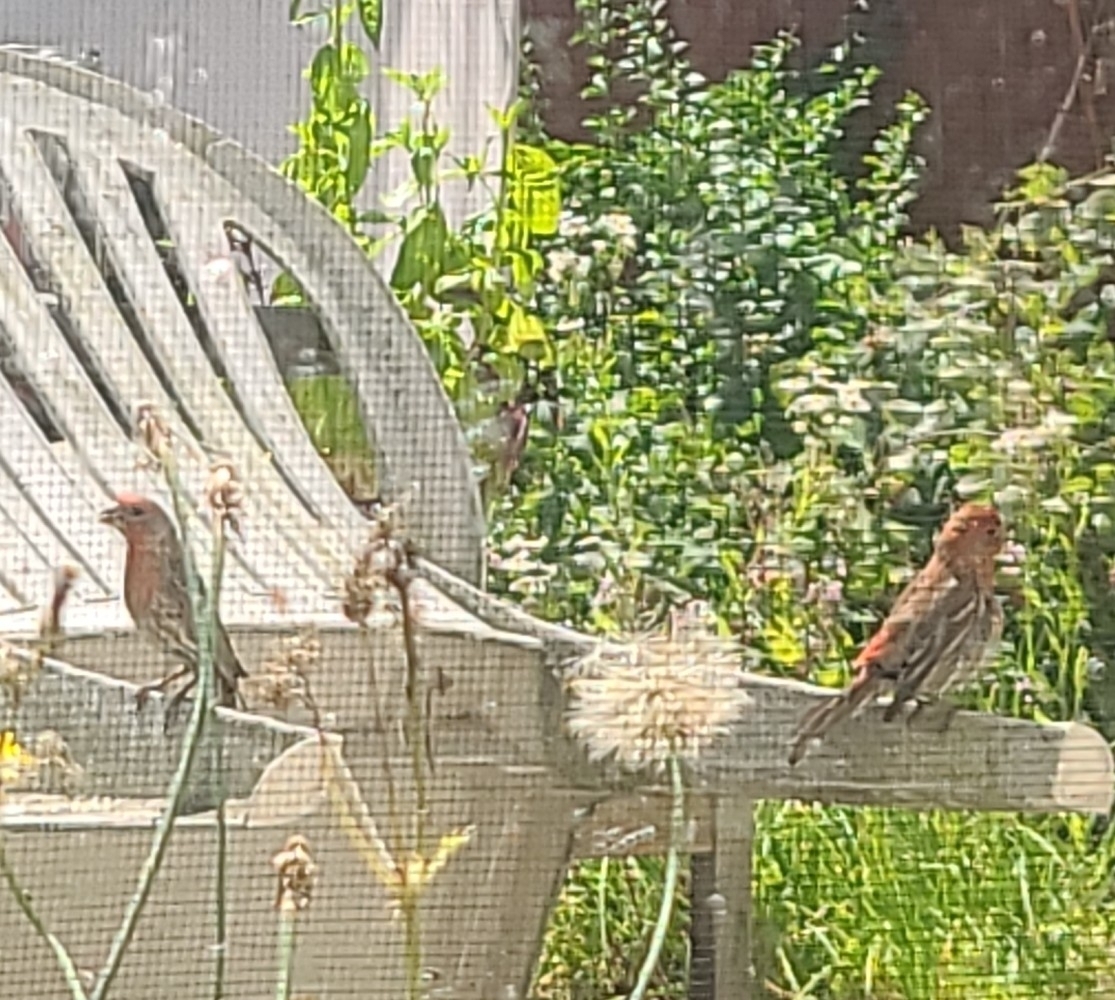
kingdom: Animalia
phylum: Chordata
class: Aves
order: Passeriformes
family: Fringillidae
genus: Haemorhous
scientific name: Haemorhous mexicanus
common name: House finch
